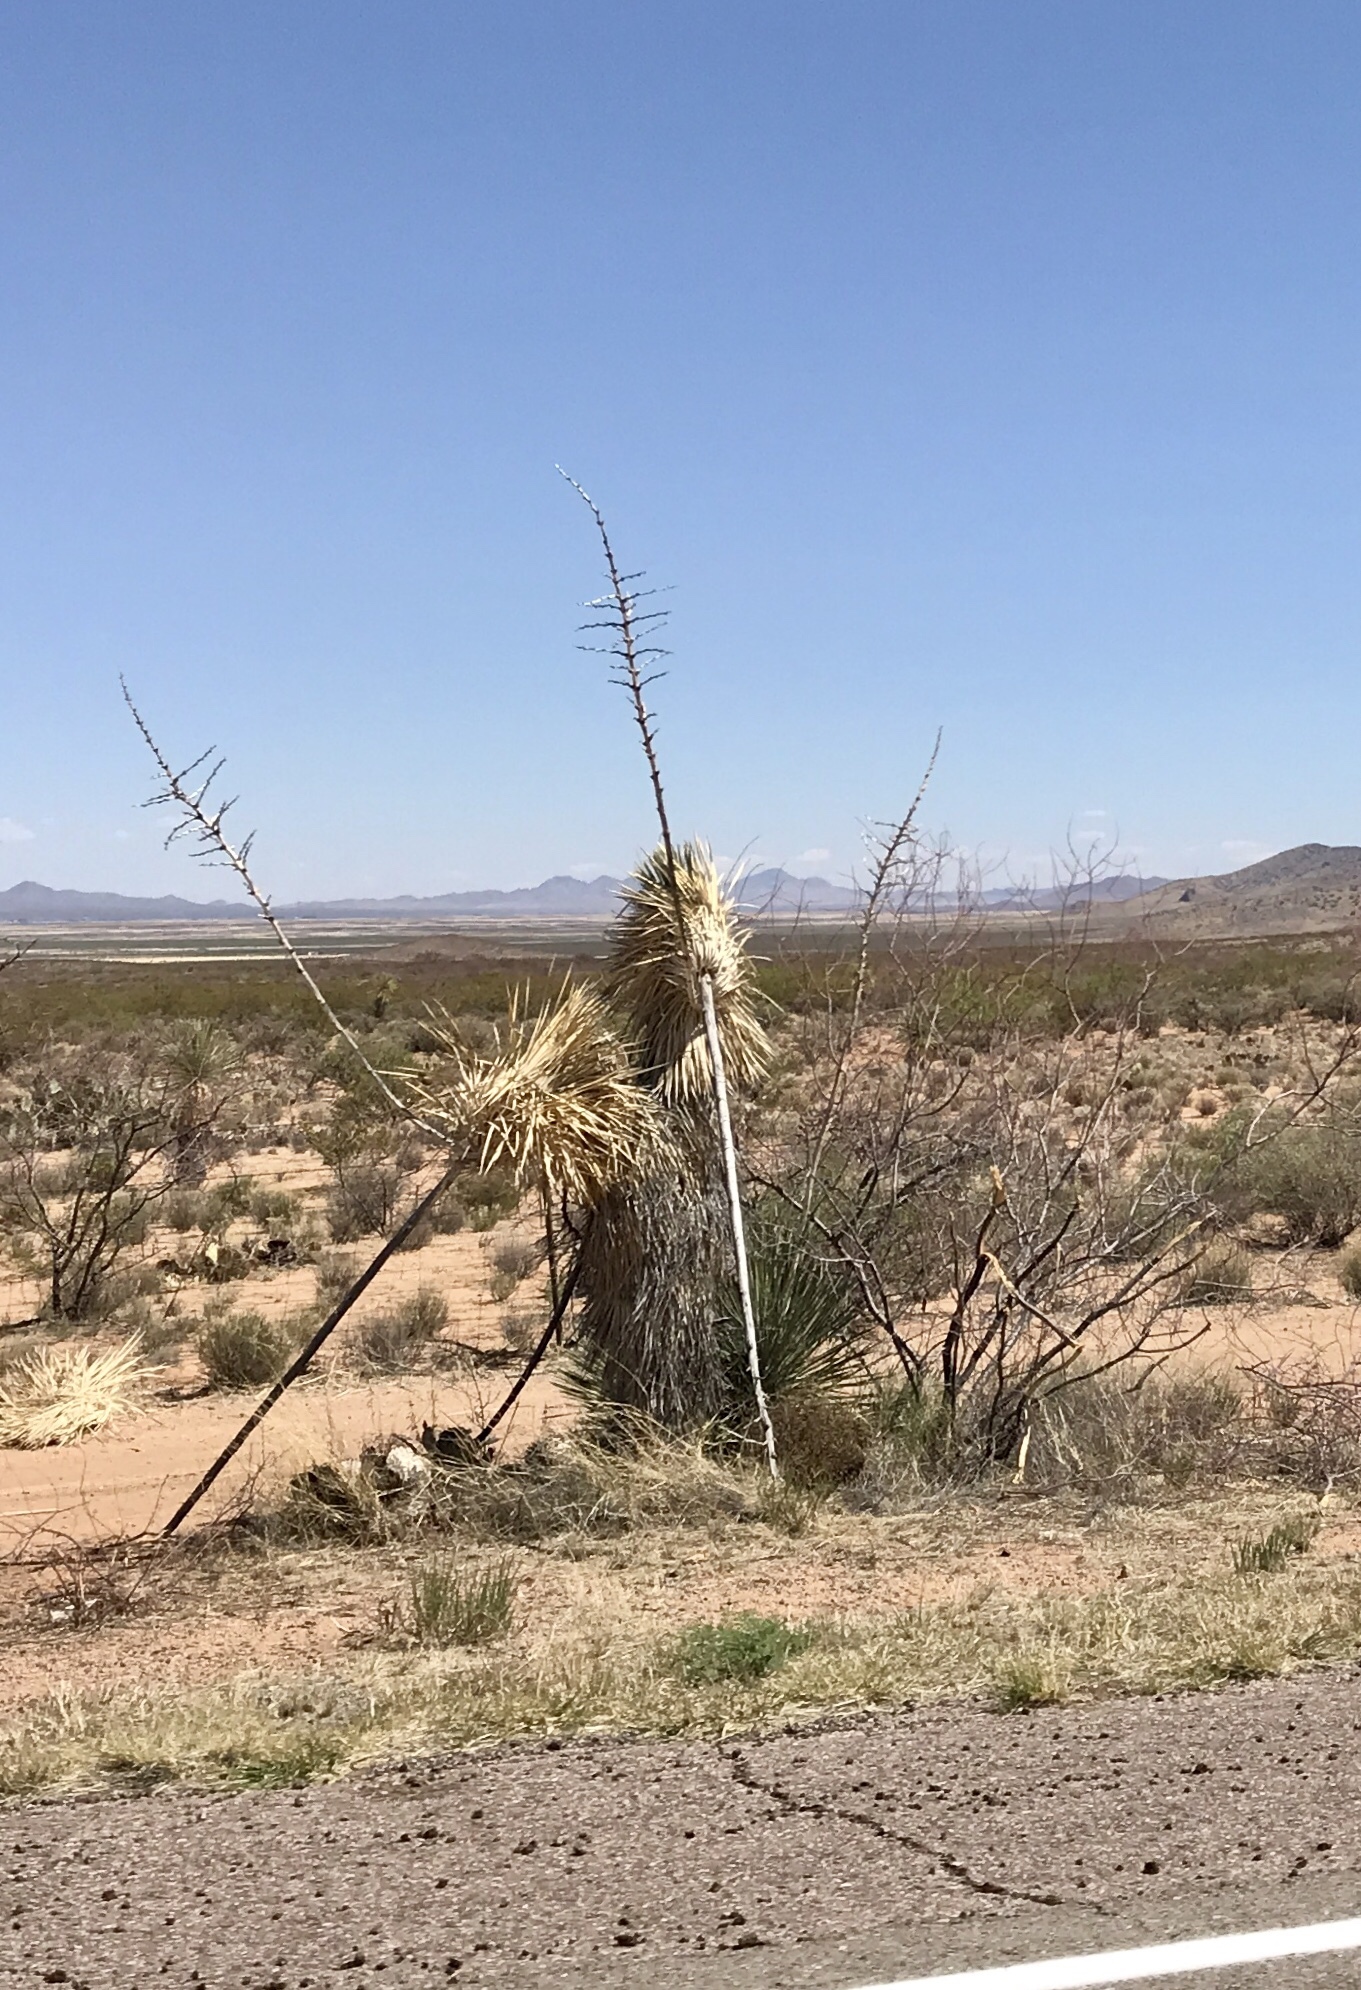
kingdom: Plantae
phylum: Tracheophyta
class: Liliopsida
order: Asparagales
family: Asparagaceae
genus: Yucca
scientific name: Yucca elata
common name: Palmella
